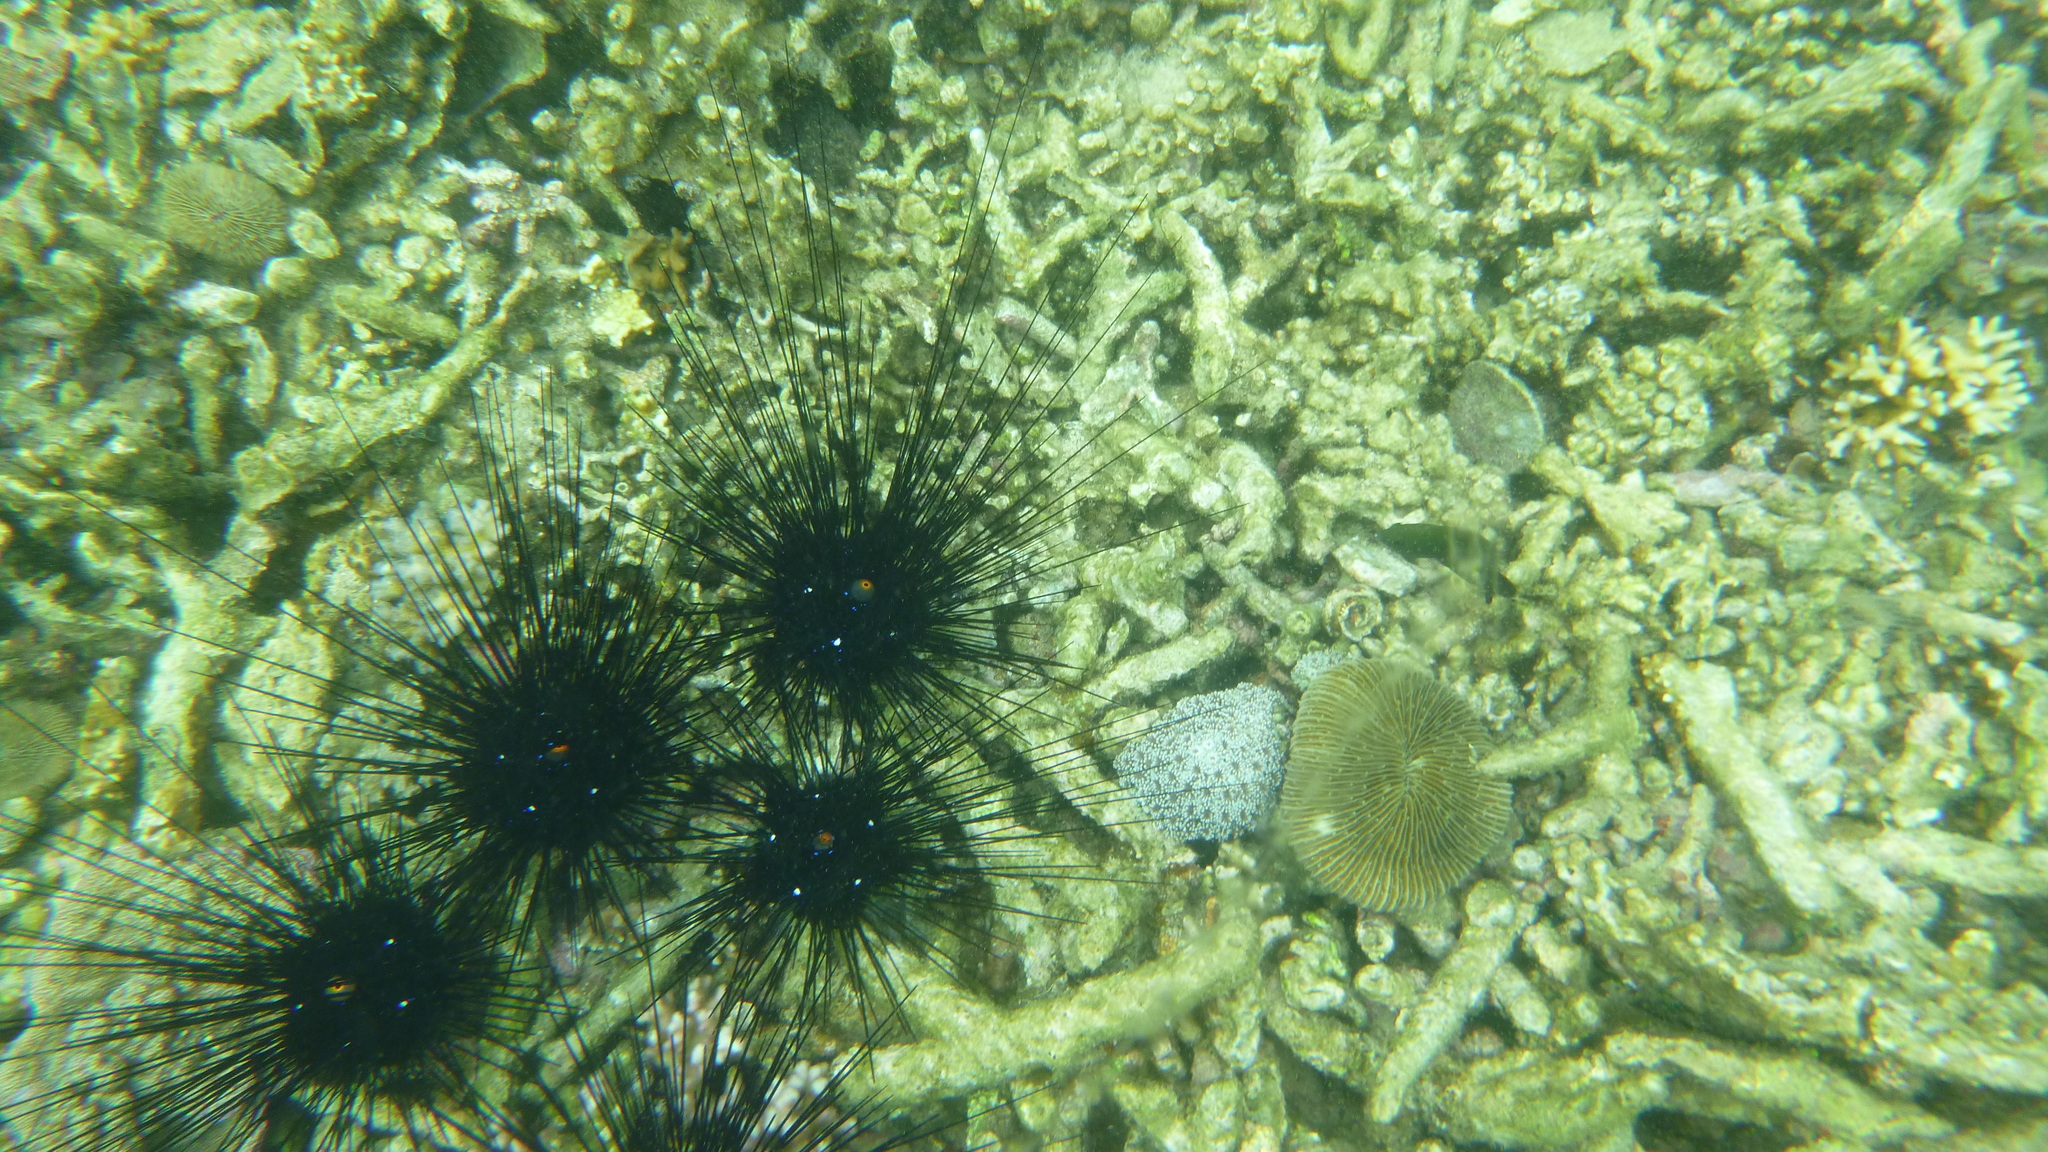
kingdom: Animalia
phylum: Echinodermata
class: Echinoidea
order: Diadematoida
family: Diadematidae
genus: Diadema
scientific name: Diadema setosum
